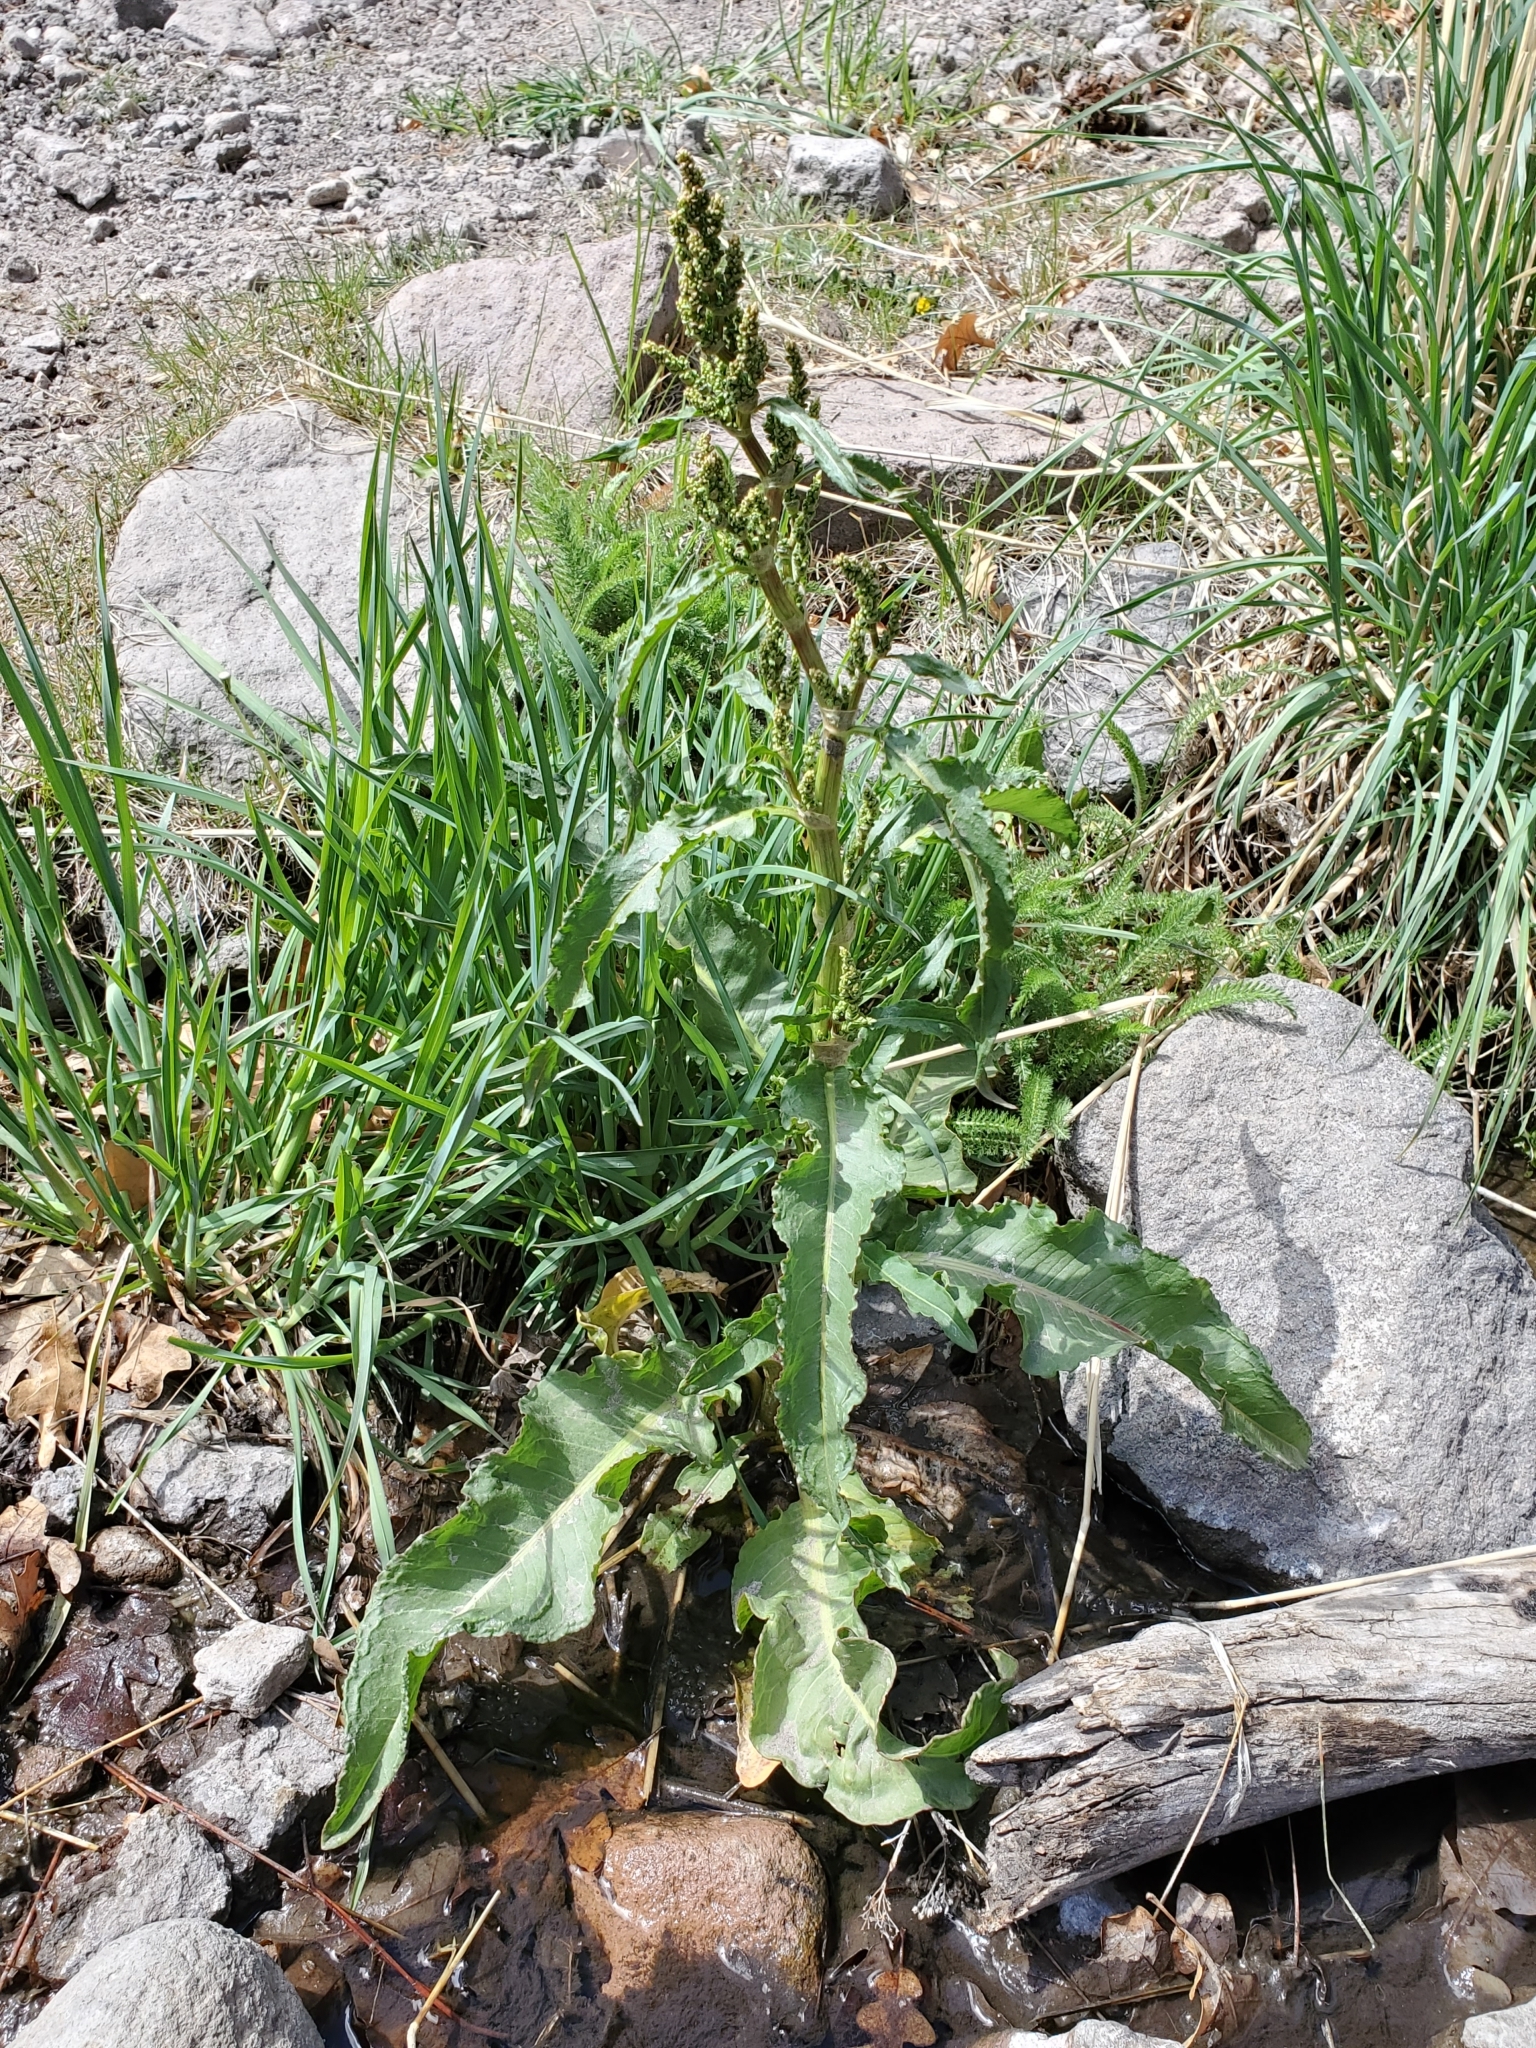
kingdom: Plantae
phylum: Tracheophyta
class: Magnoliopsida
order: Caryophyllales
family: Polygonaceae
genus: Rumex
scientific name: Rumex crispus
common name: Curled dock
